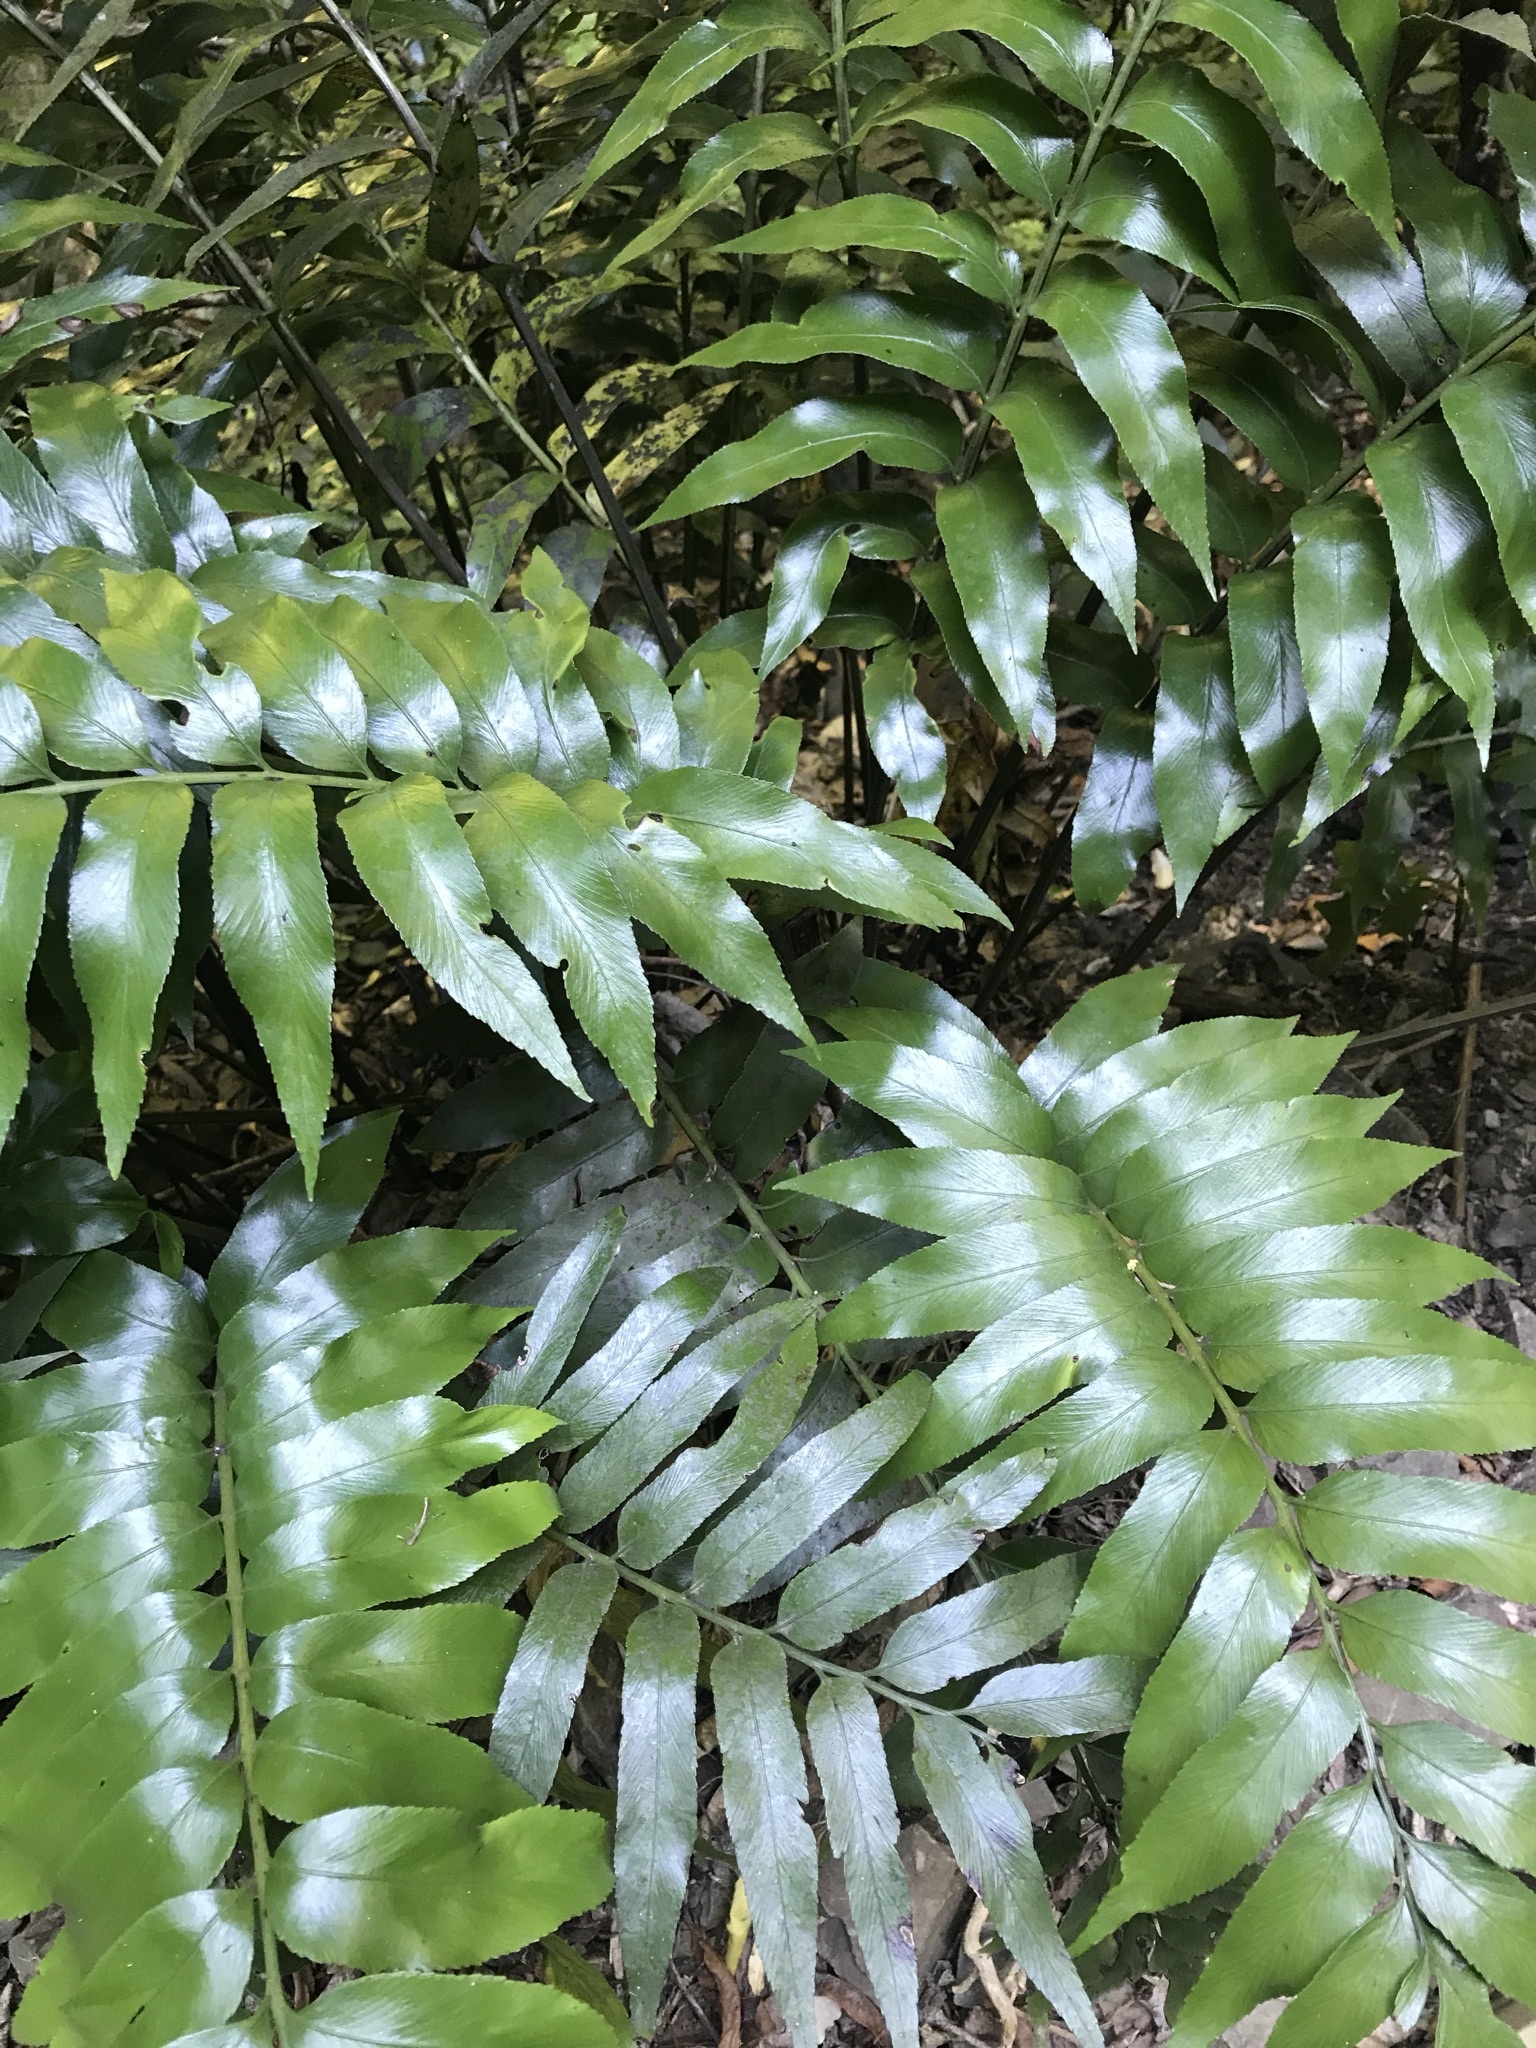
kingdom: Plantae
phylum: Tracheophyta
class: Polypodiopsida
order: Polypodiales
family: Aspleniaceae
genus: Asplenium
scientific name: Asplenium oblongifolium
